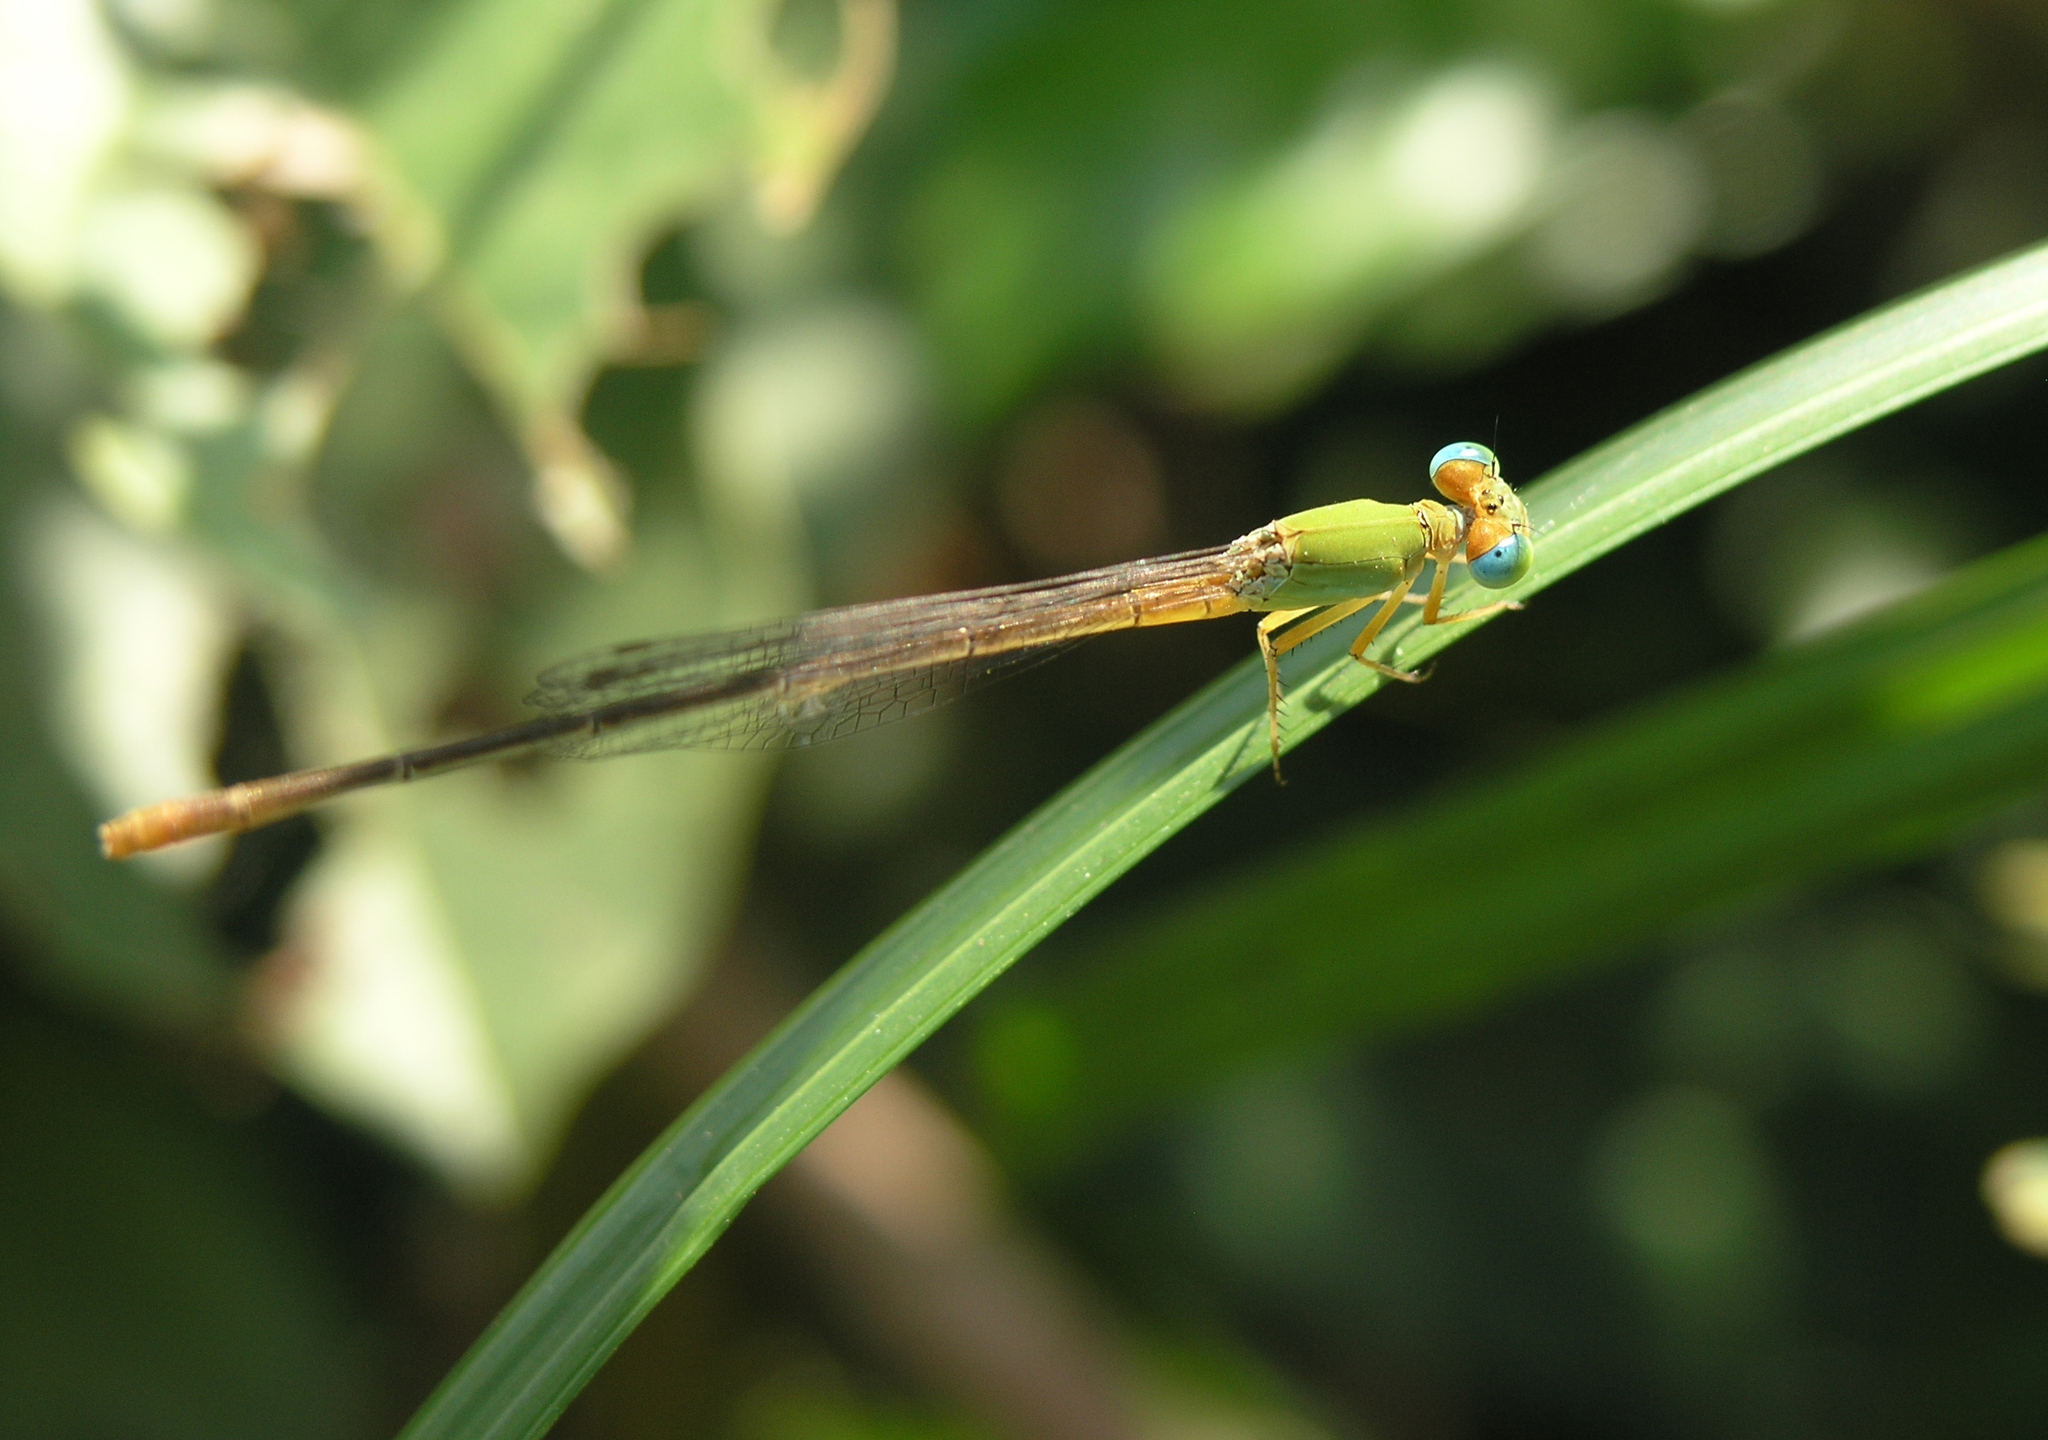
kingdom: Animalia
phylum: Arthropoda
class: Insecta
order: Odonata
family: Coenagrionidae
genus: Ceriagrion
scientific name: Ceriagrion cerinorubellum
